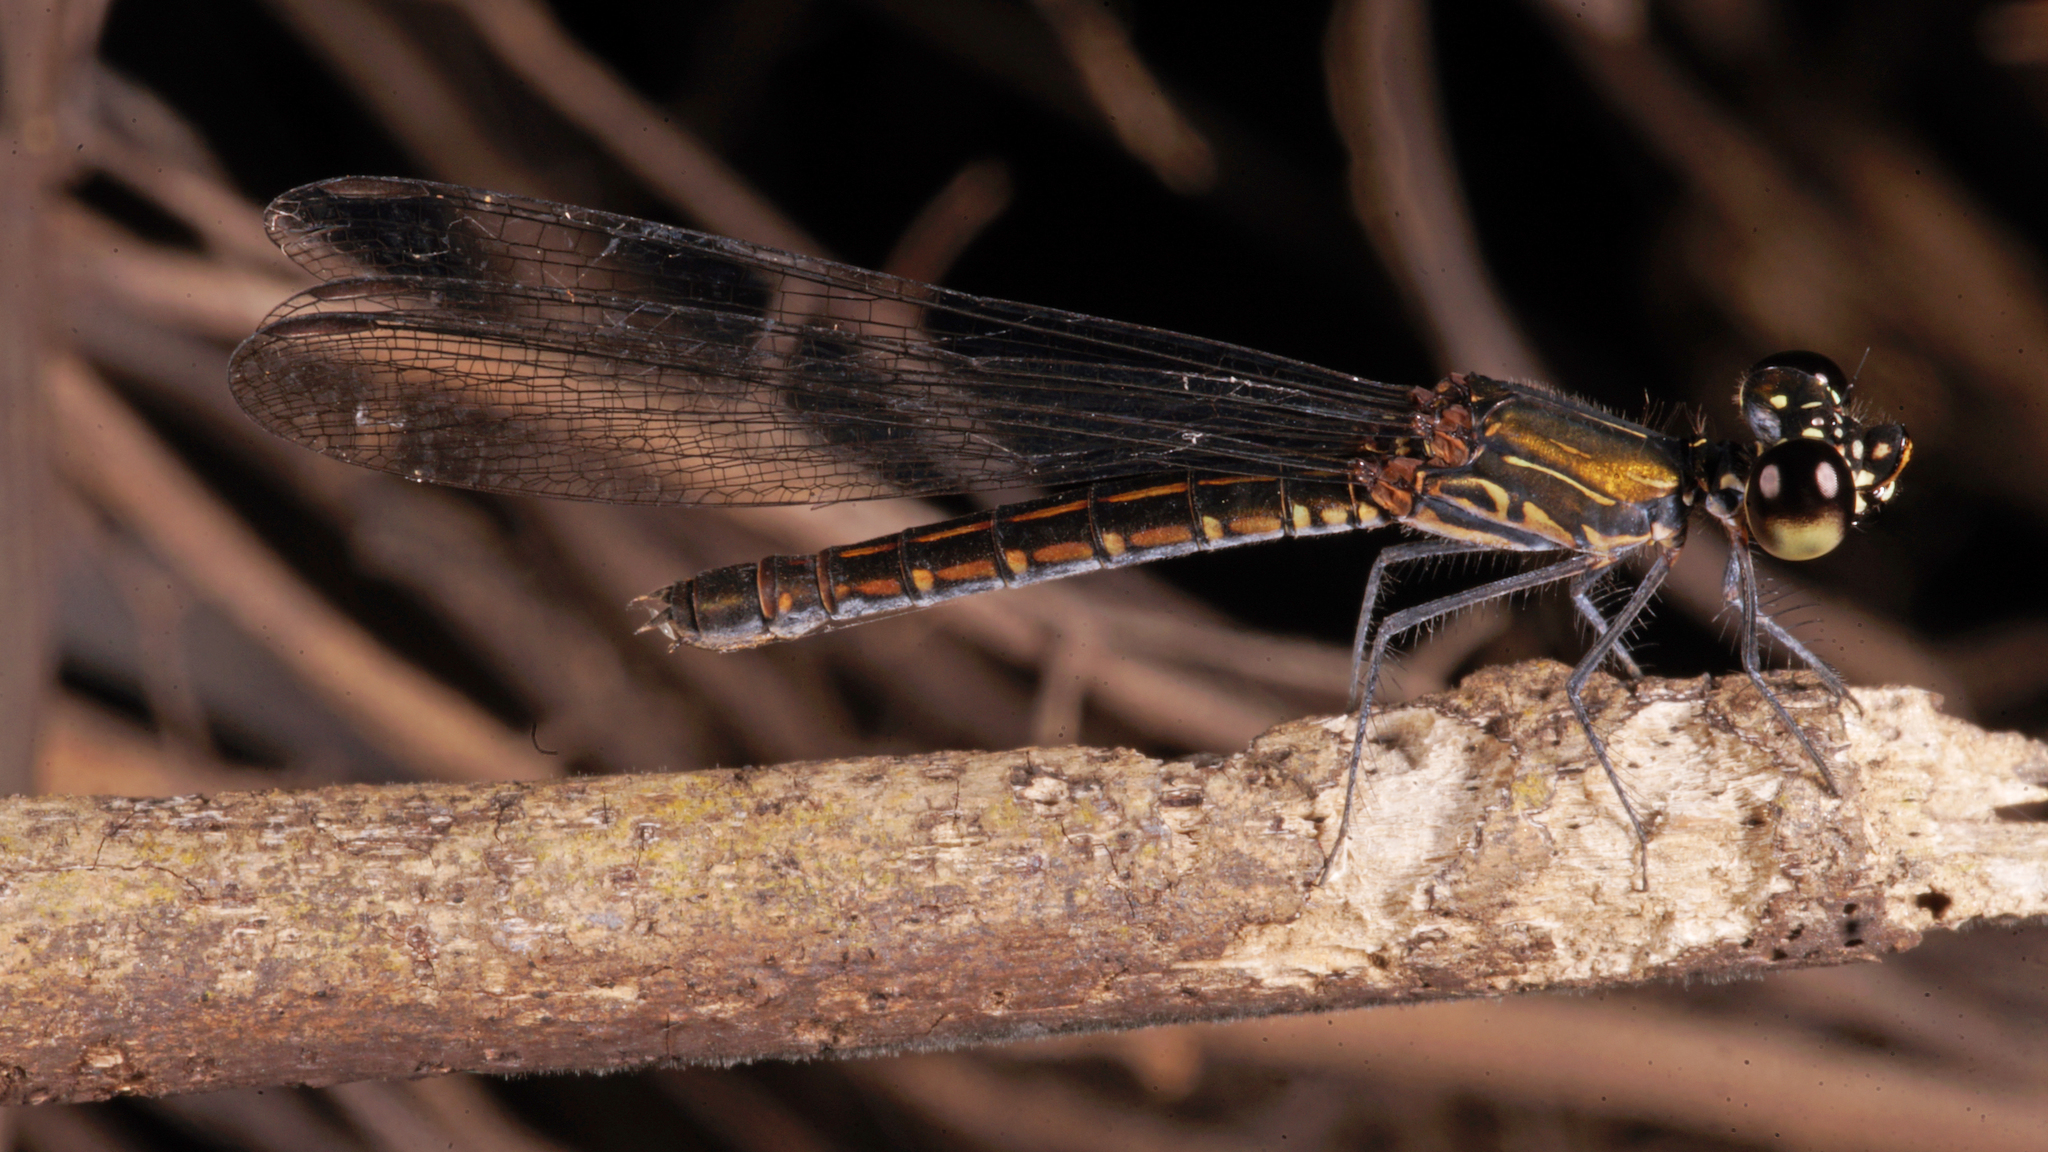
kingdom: Animalia
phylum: Arthropoda
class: Insecta
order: Odonata
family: Chlorocyphidae
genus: Libellago
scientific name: Libellago hyalina
